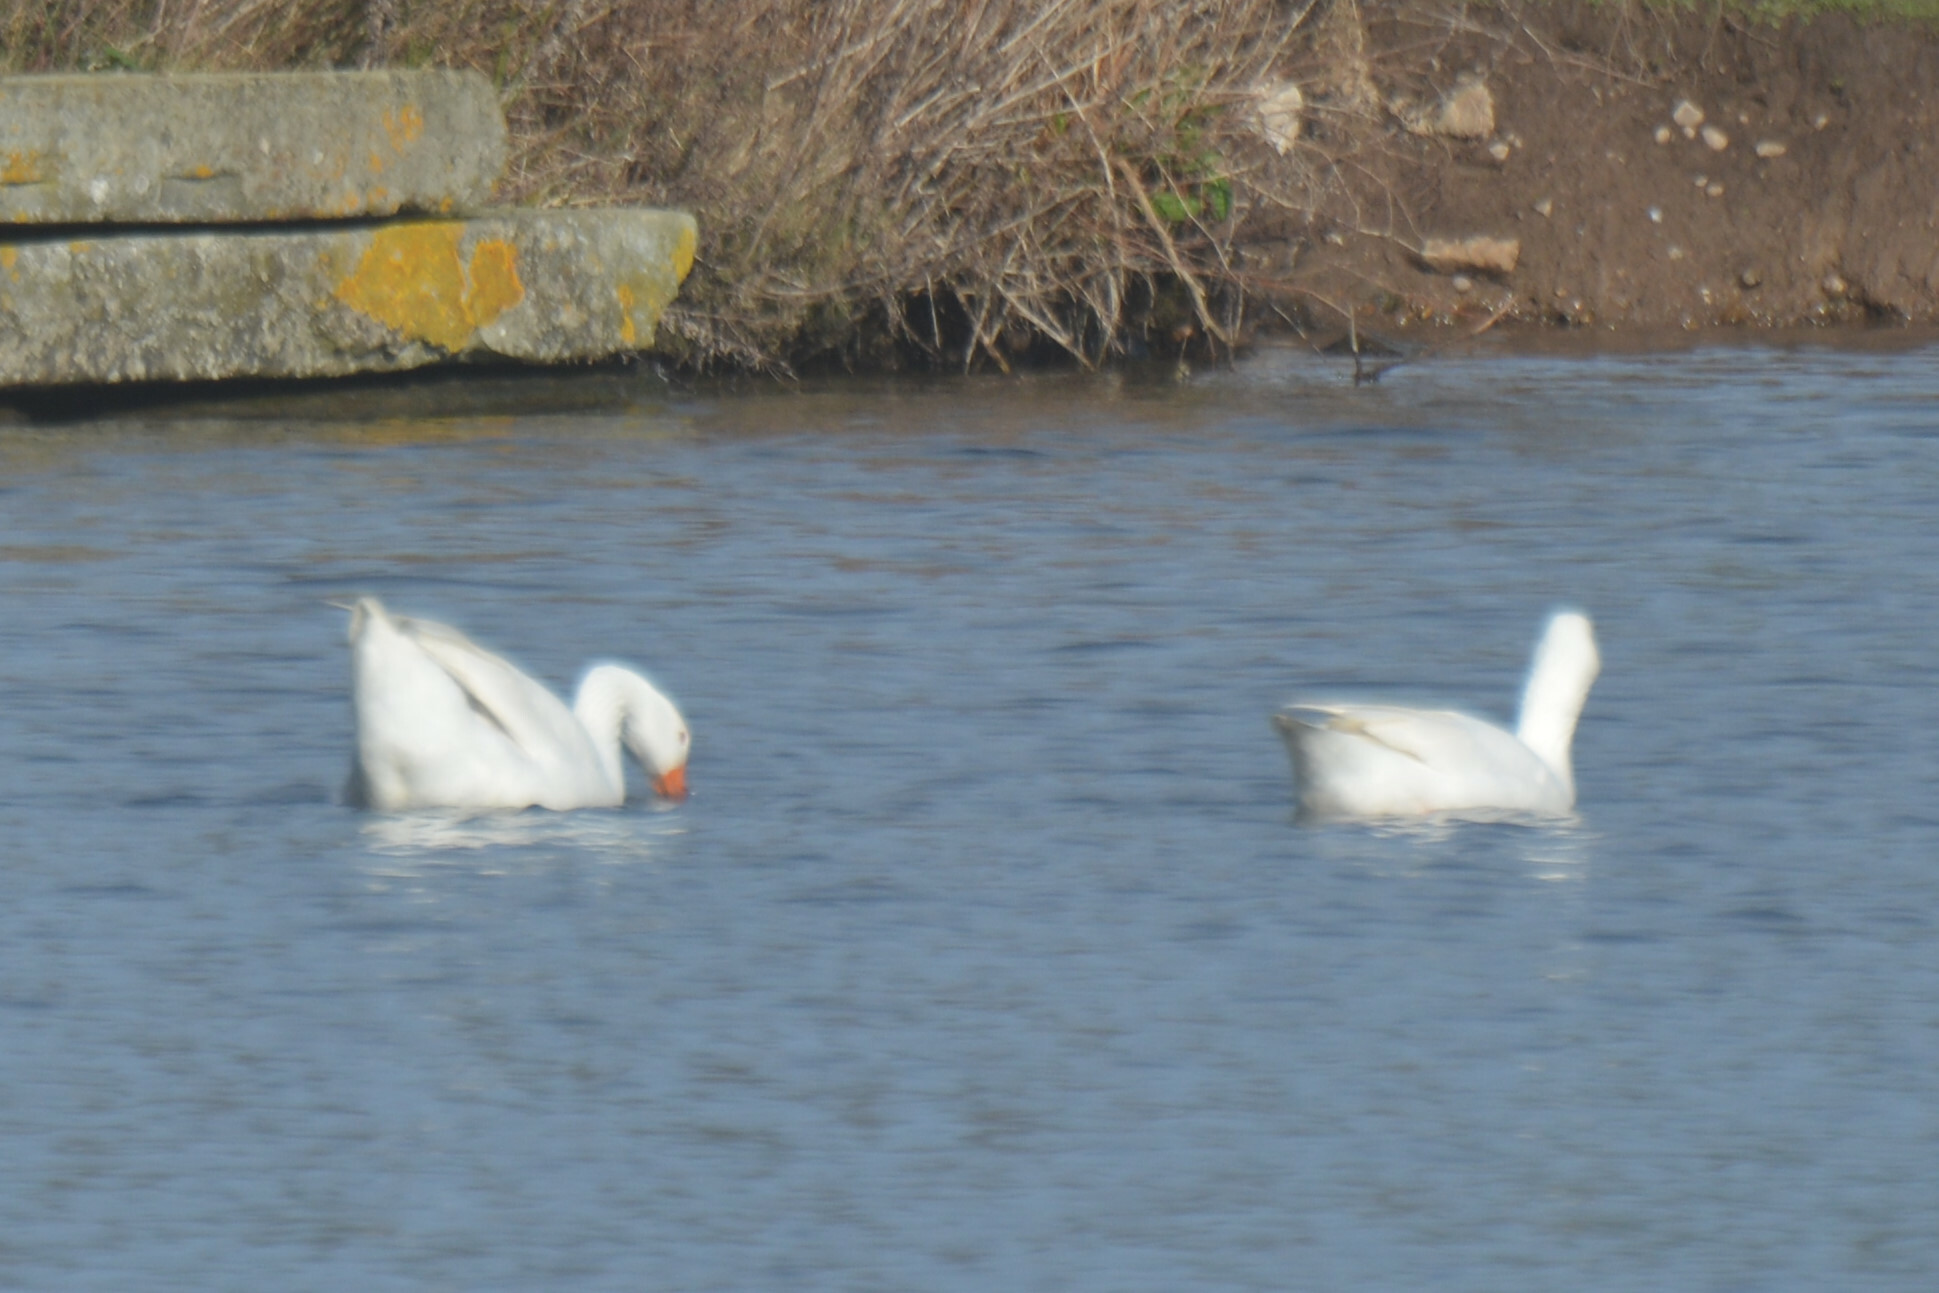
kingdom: Animalia
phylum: Chordata
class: Aves
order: Anseriformes
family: Anatidae
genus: Anser
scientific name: Anser anser
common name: Greylag goose
